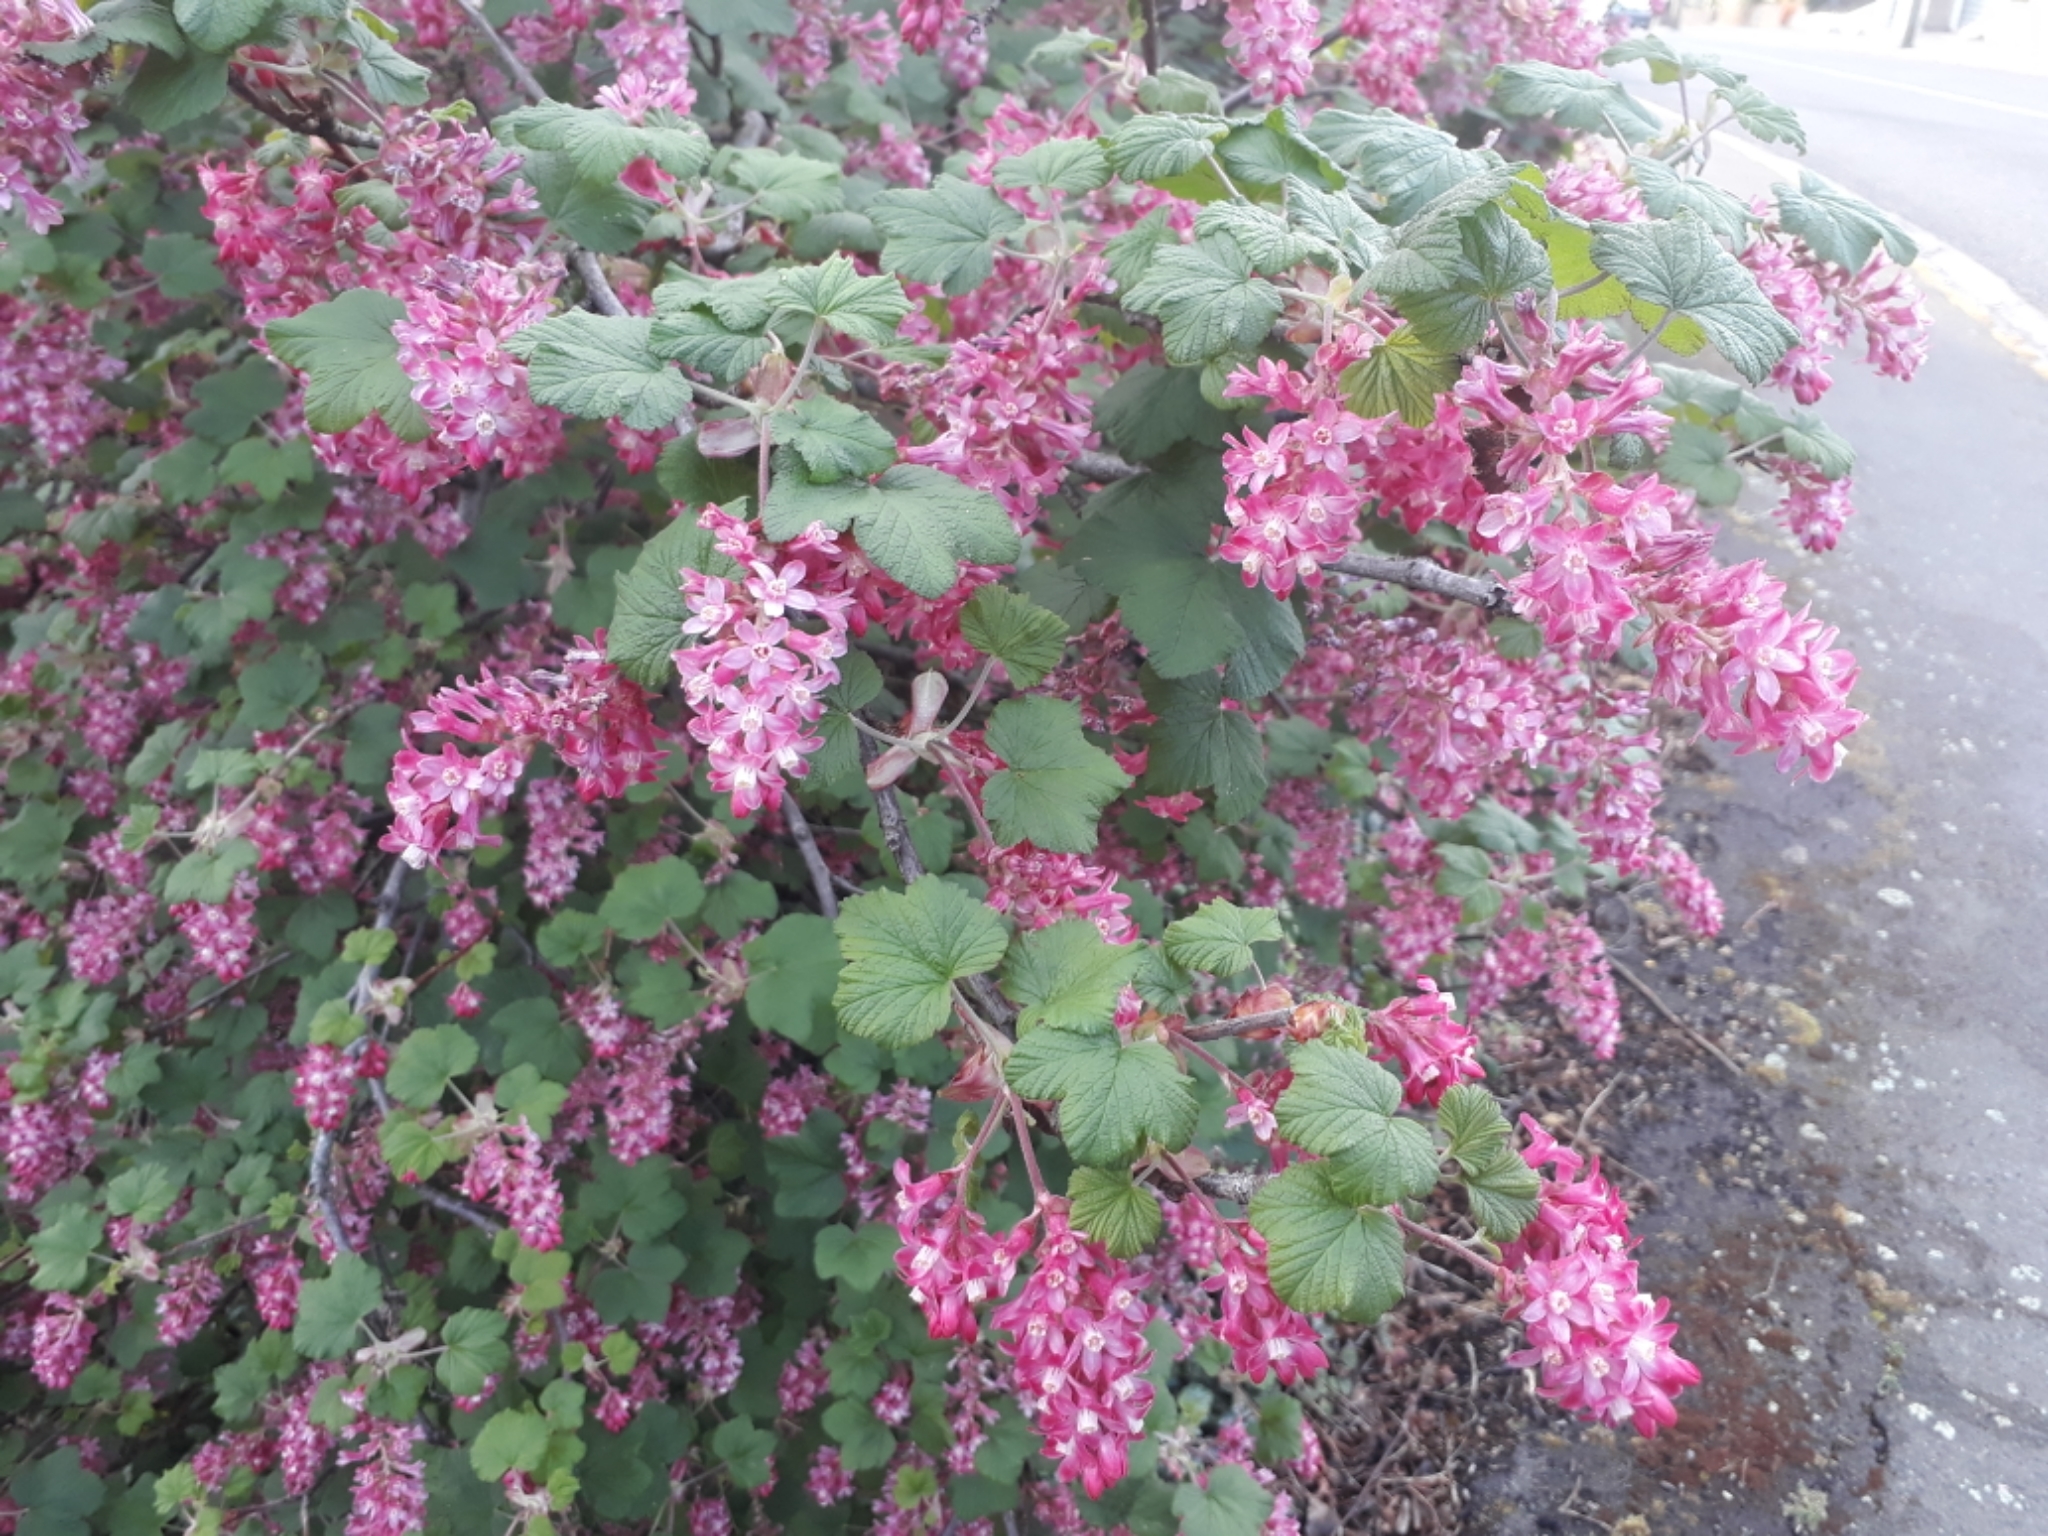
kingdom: Plantae
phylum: Tracheophyta
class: Magnoliopsida
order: Saxifragales
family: Grossulariaceae
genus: Ribes
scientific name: Ribes sanguineum
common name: Flowering currant
